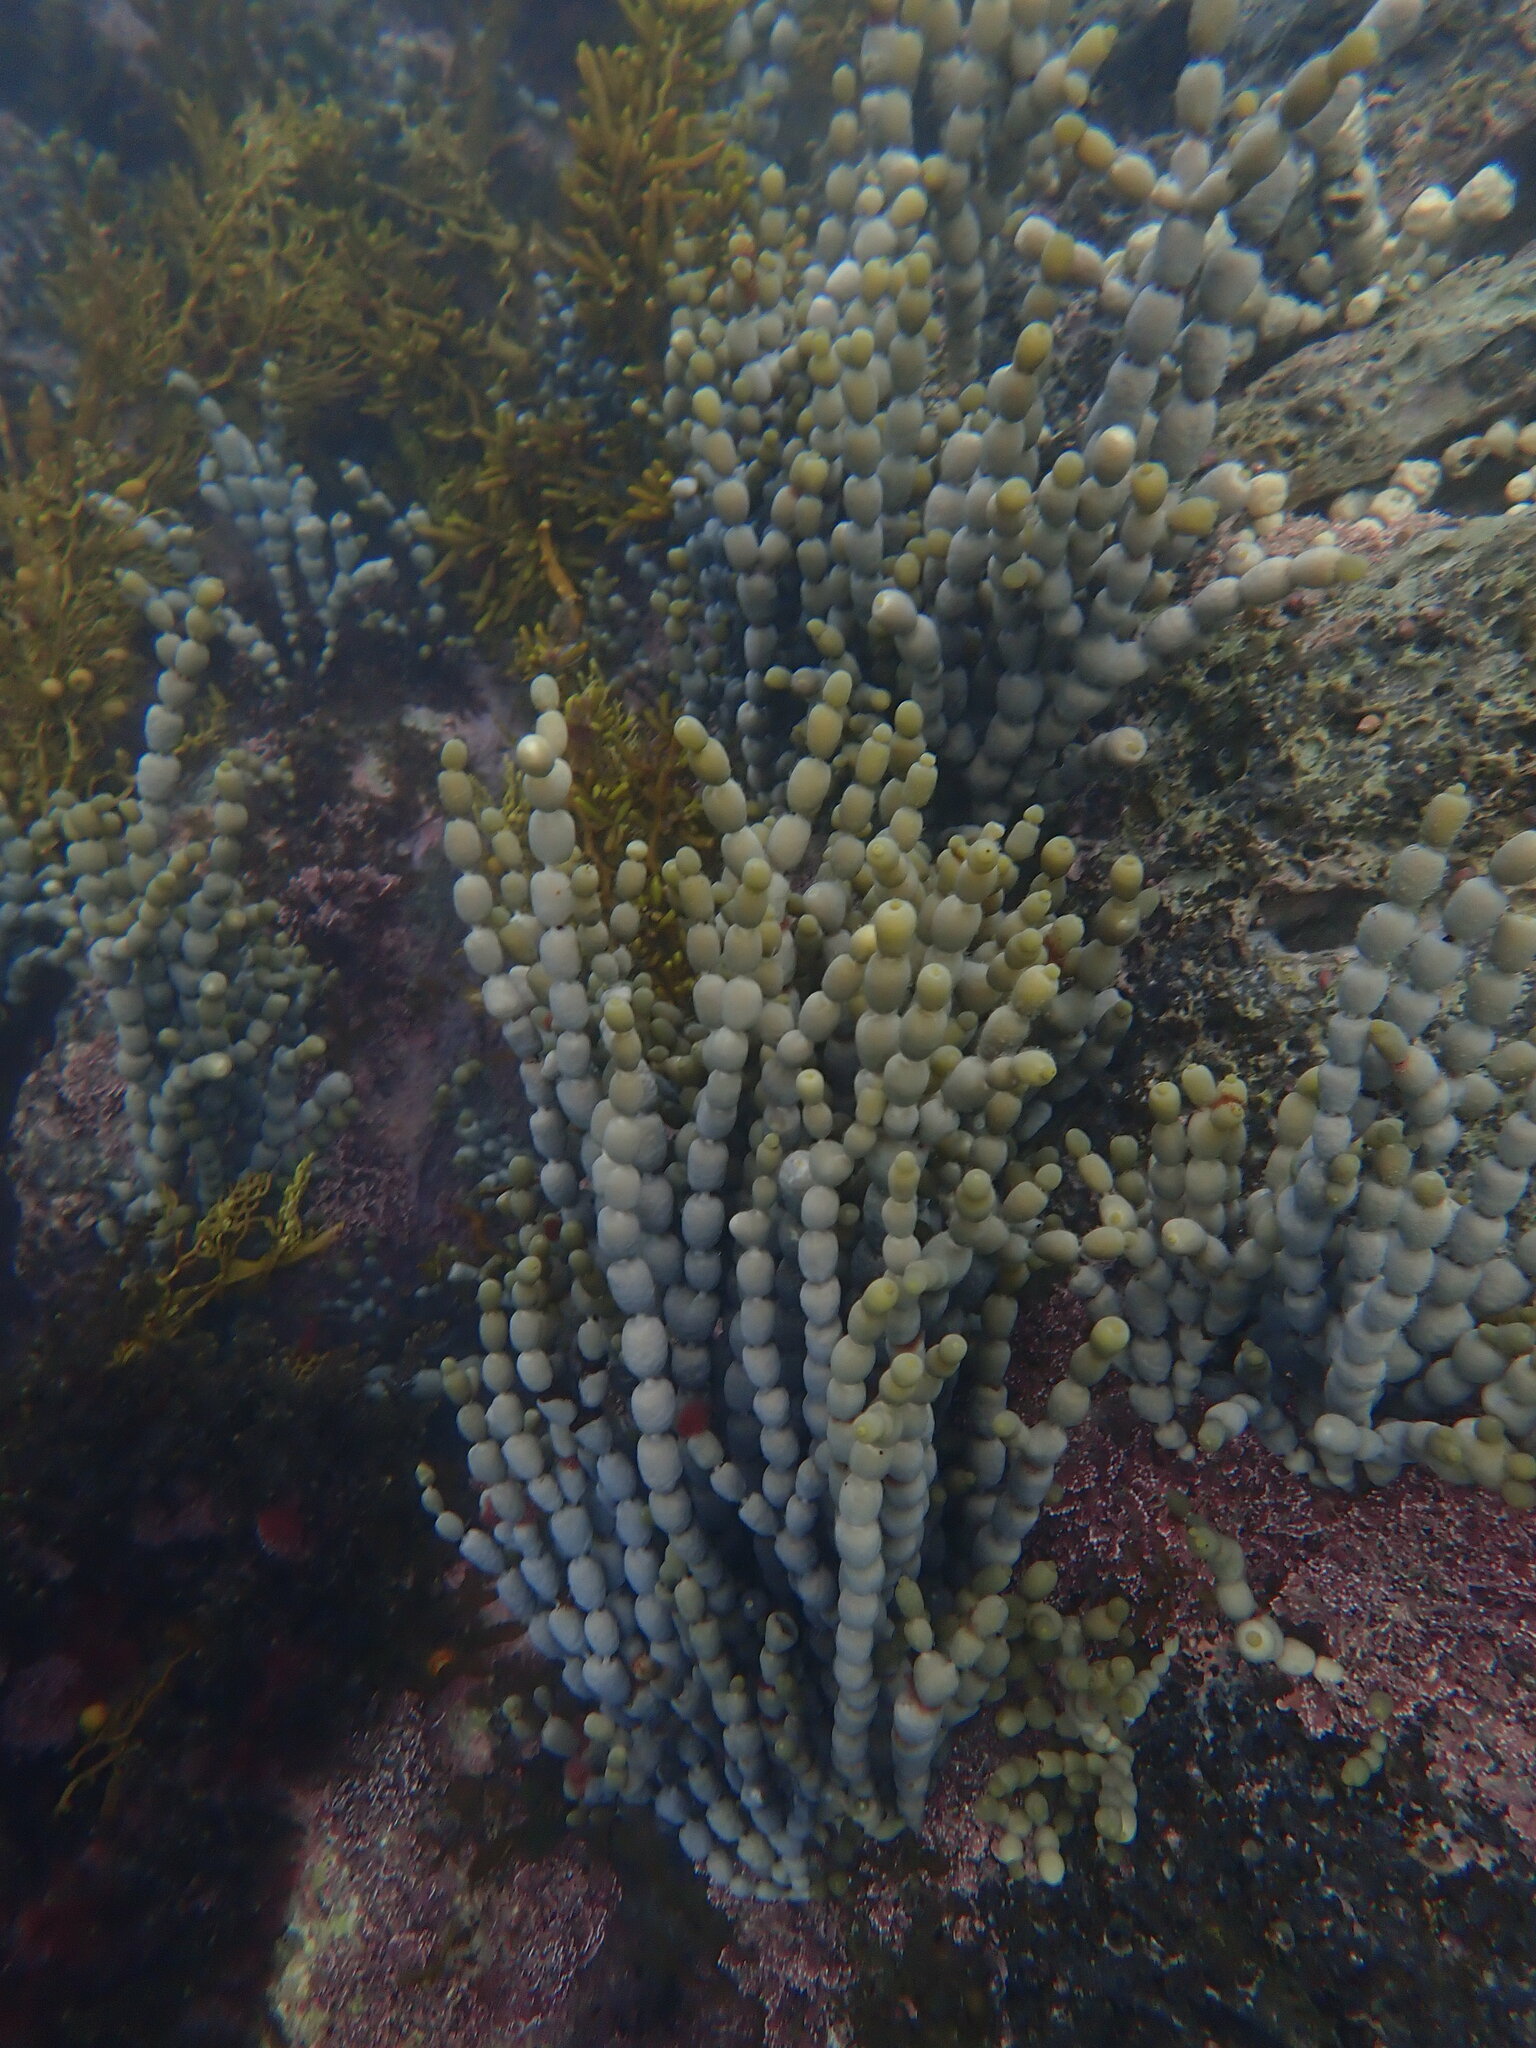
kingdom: Chromista
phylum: Ochrophyta
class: Phaeophyceae
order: Fucales
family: Hormosiraceae
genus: Hormosira
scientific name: Hormosira banksii
